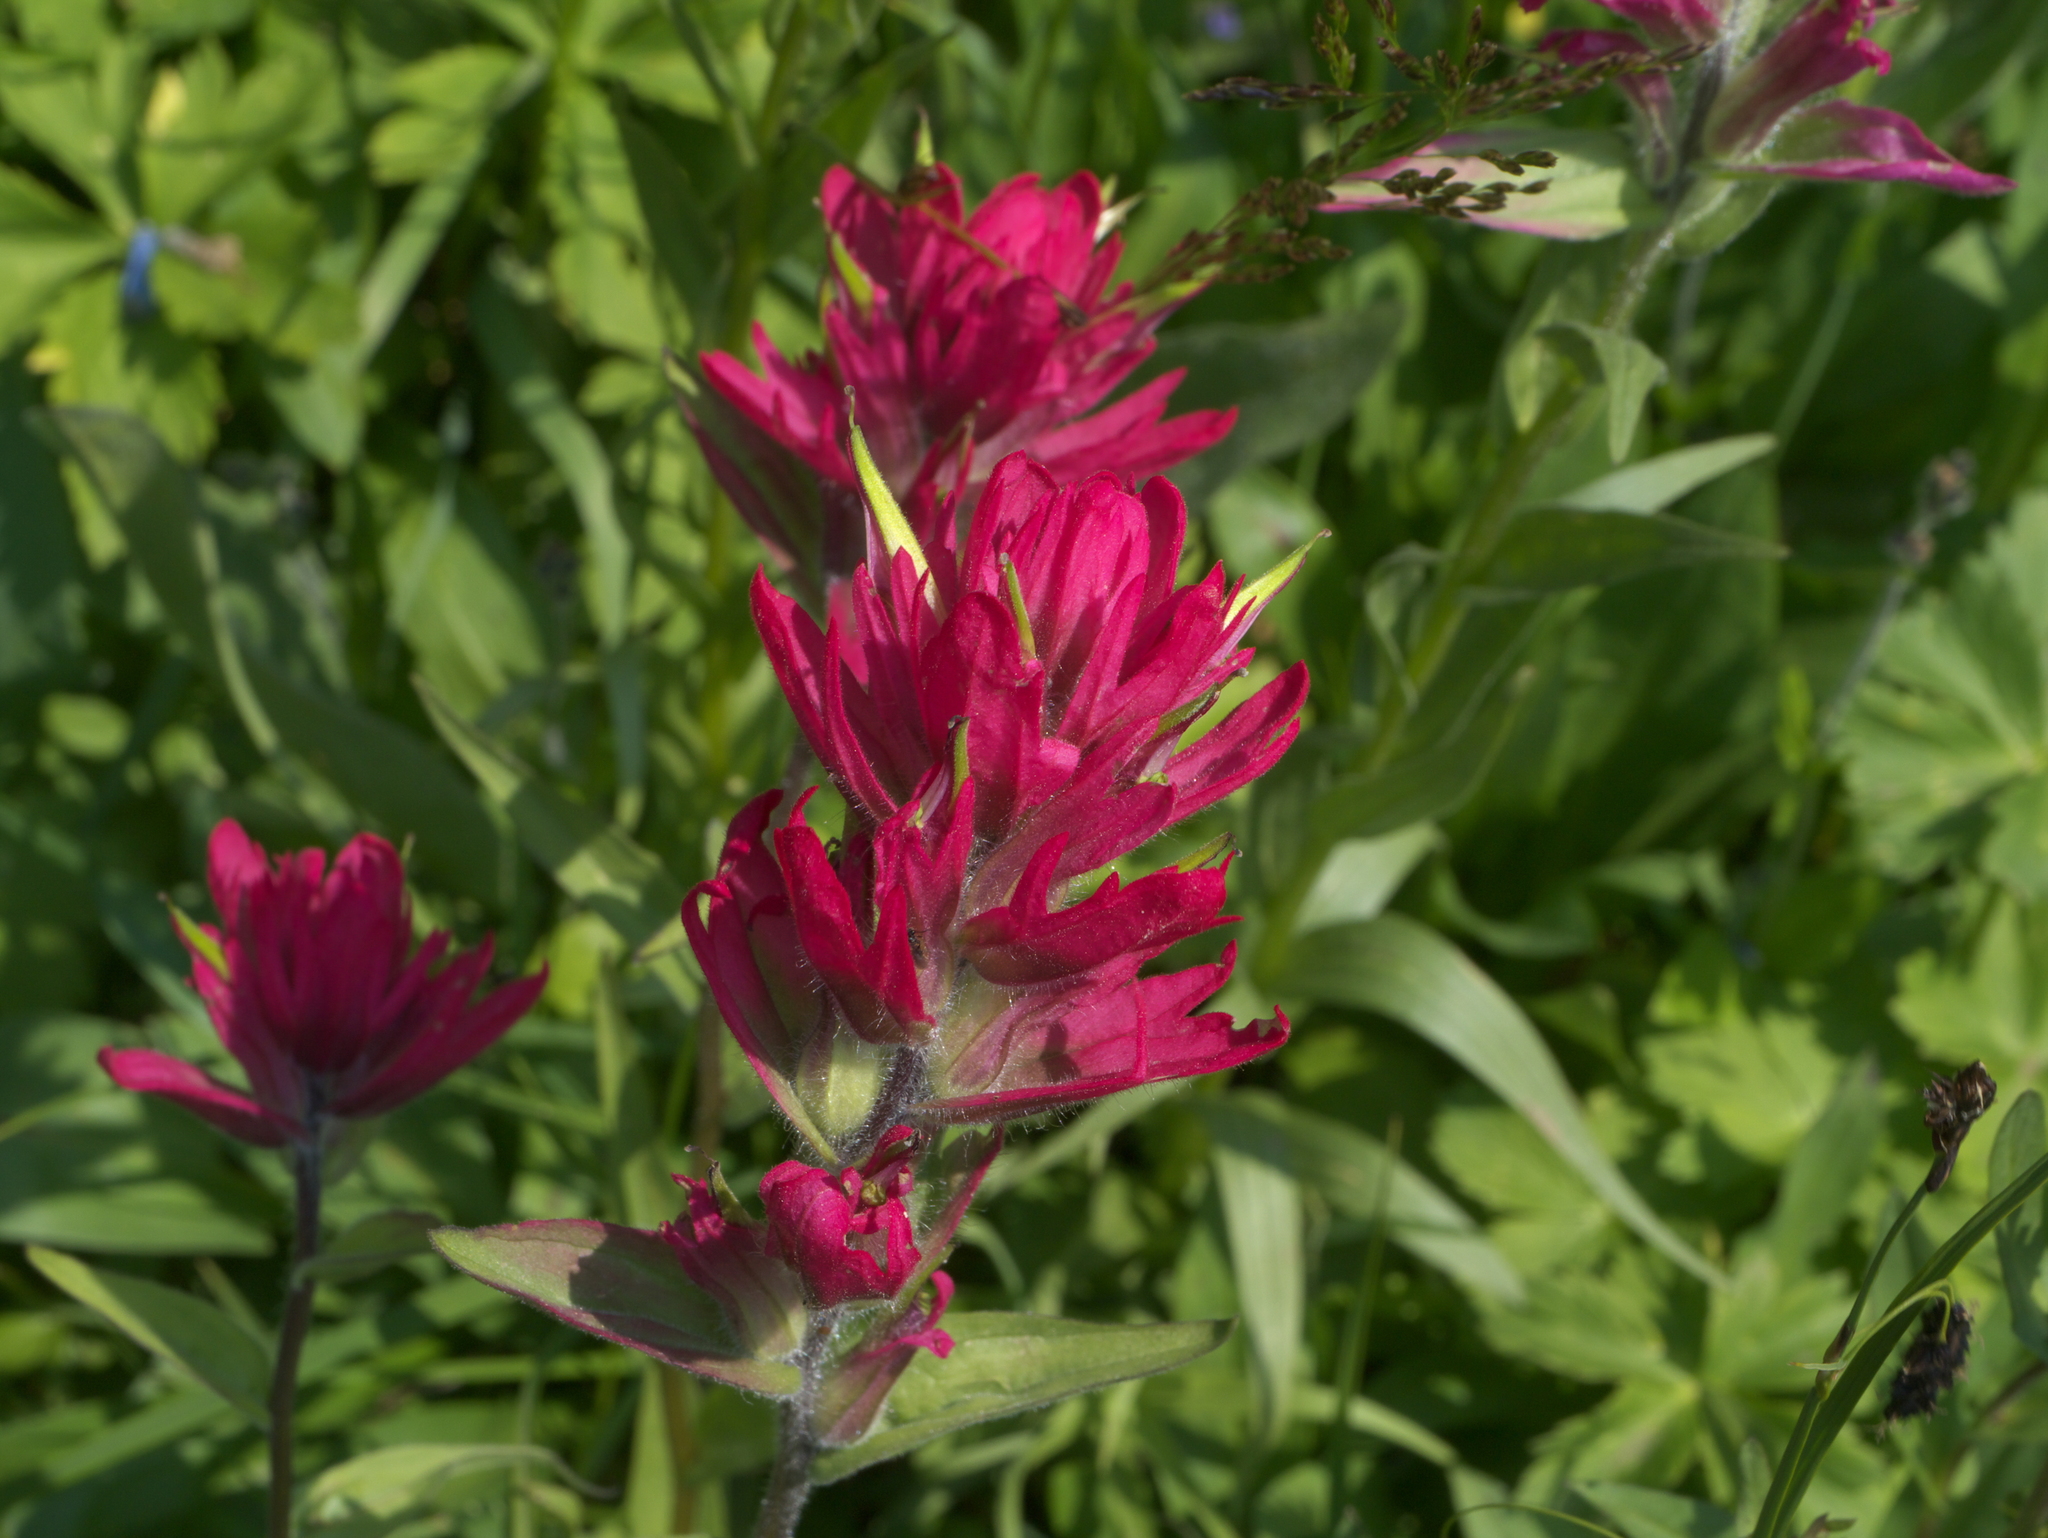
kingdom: Plantae
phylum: Tracheophyta
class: Magnoliopsida
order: Lamiales
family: Orobanchaceae
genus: Castilleja
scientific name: Castilleja rhexifolia
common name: Rocky mountain paintbrush
